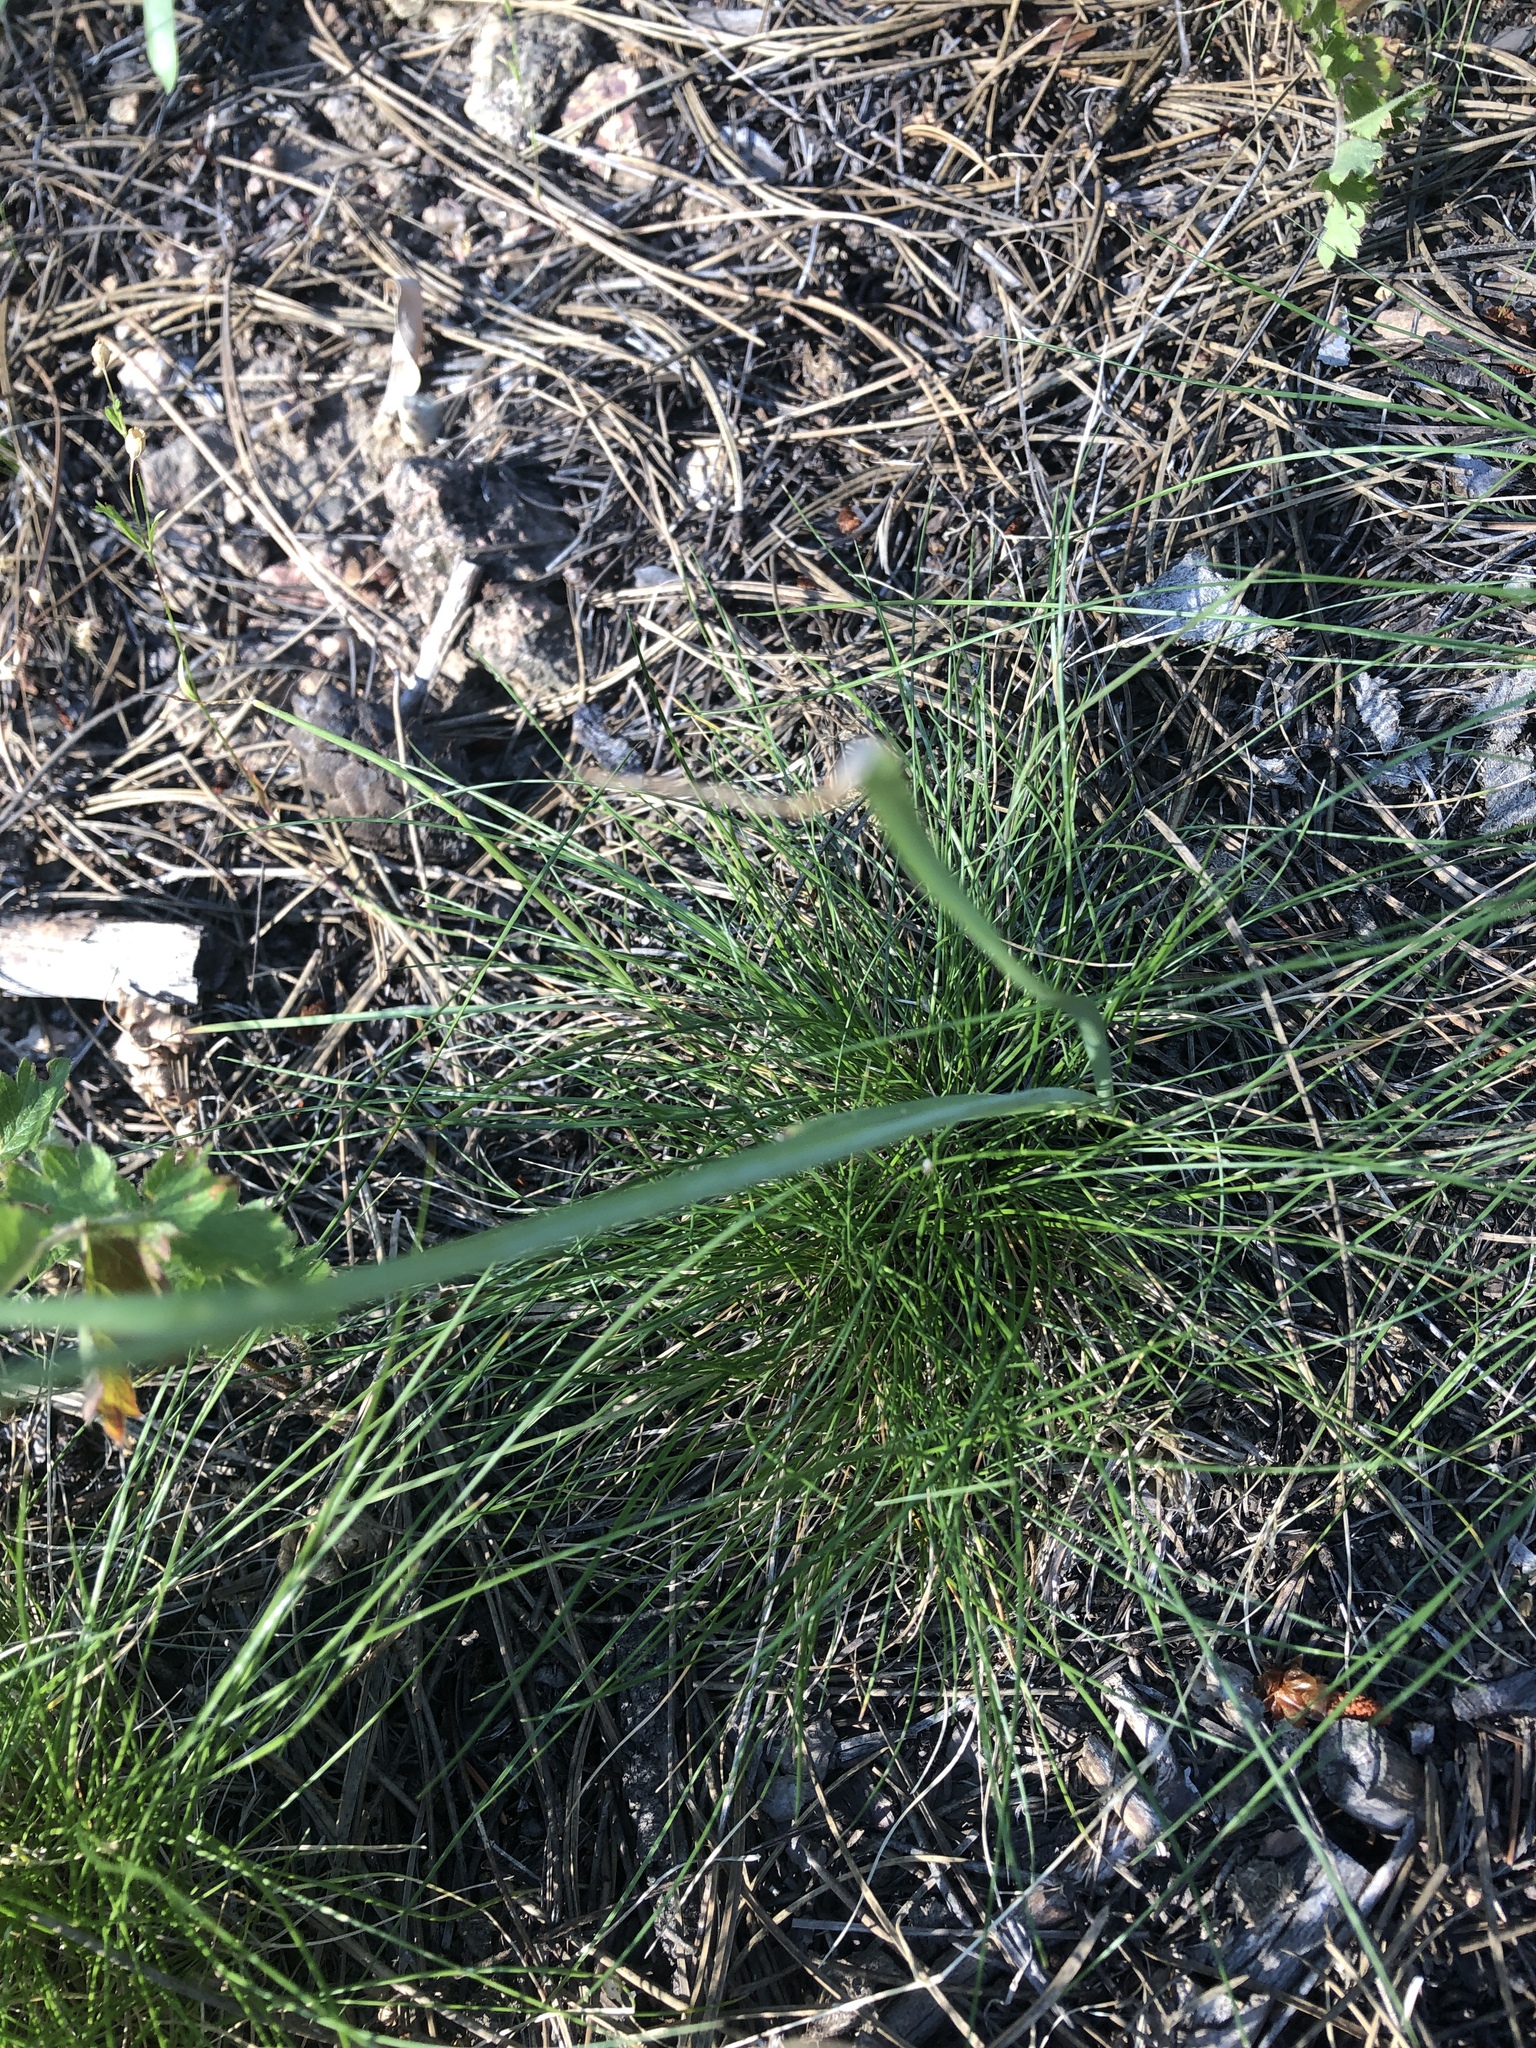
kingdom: Plantae
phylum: Tracheophyta
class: Liliopsida
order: Asparagales
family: Amaryllidaceae
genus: Allium
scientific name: Allium cernuum
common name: Nodding onion
